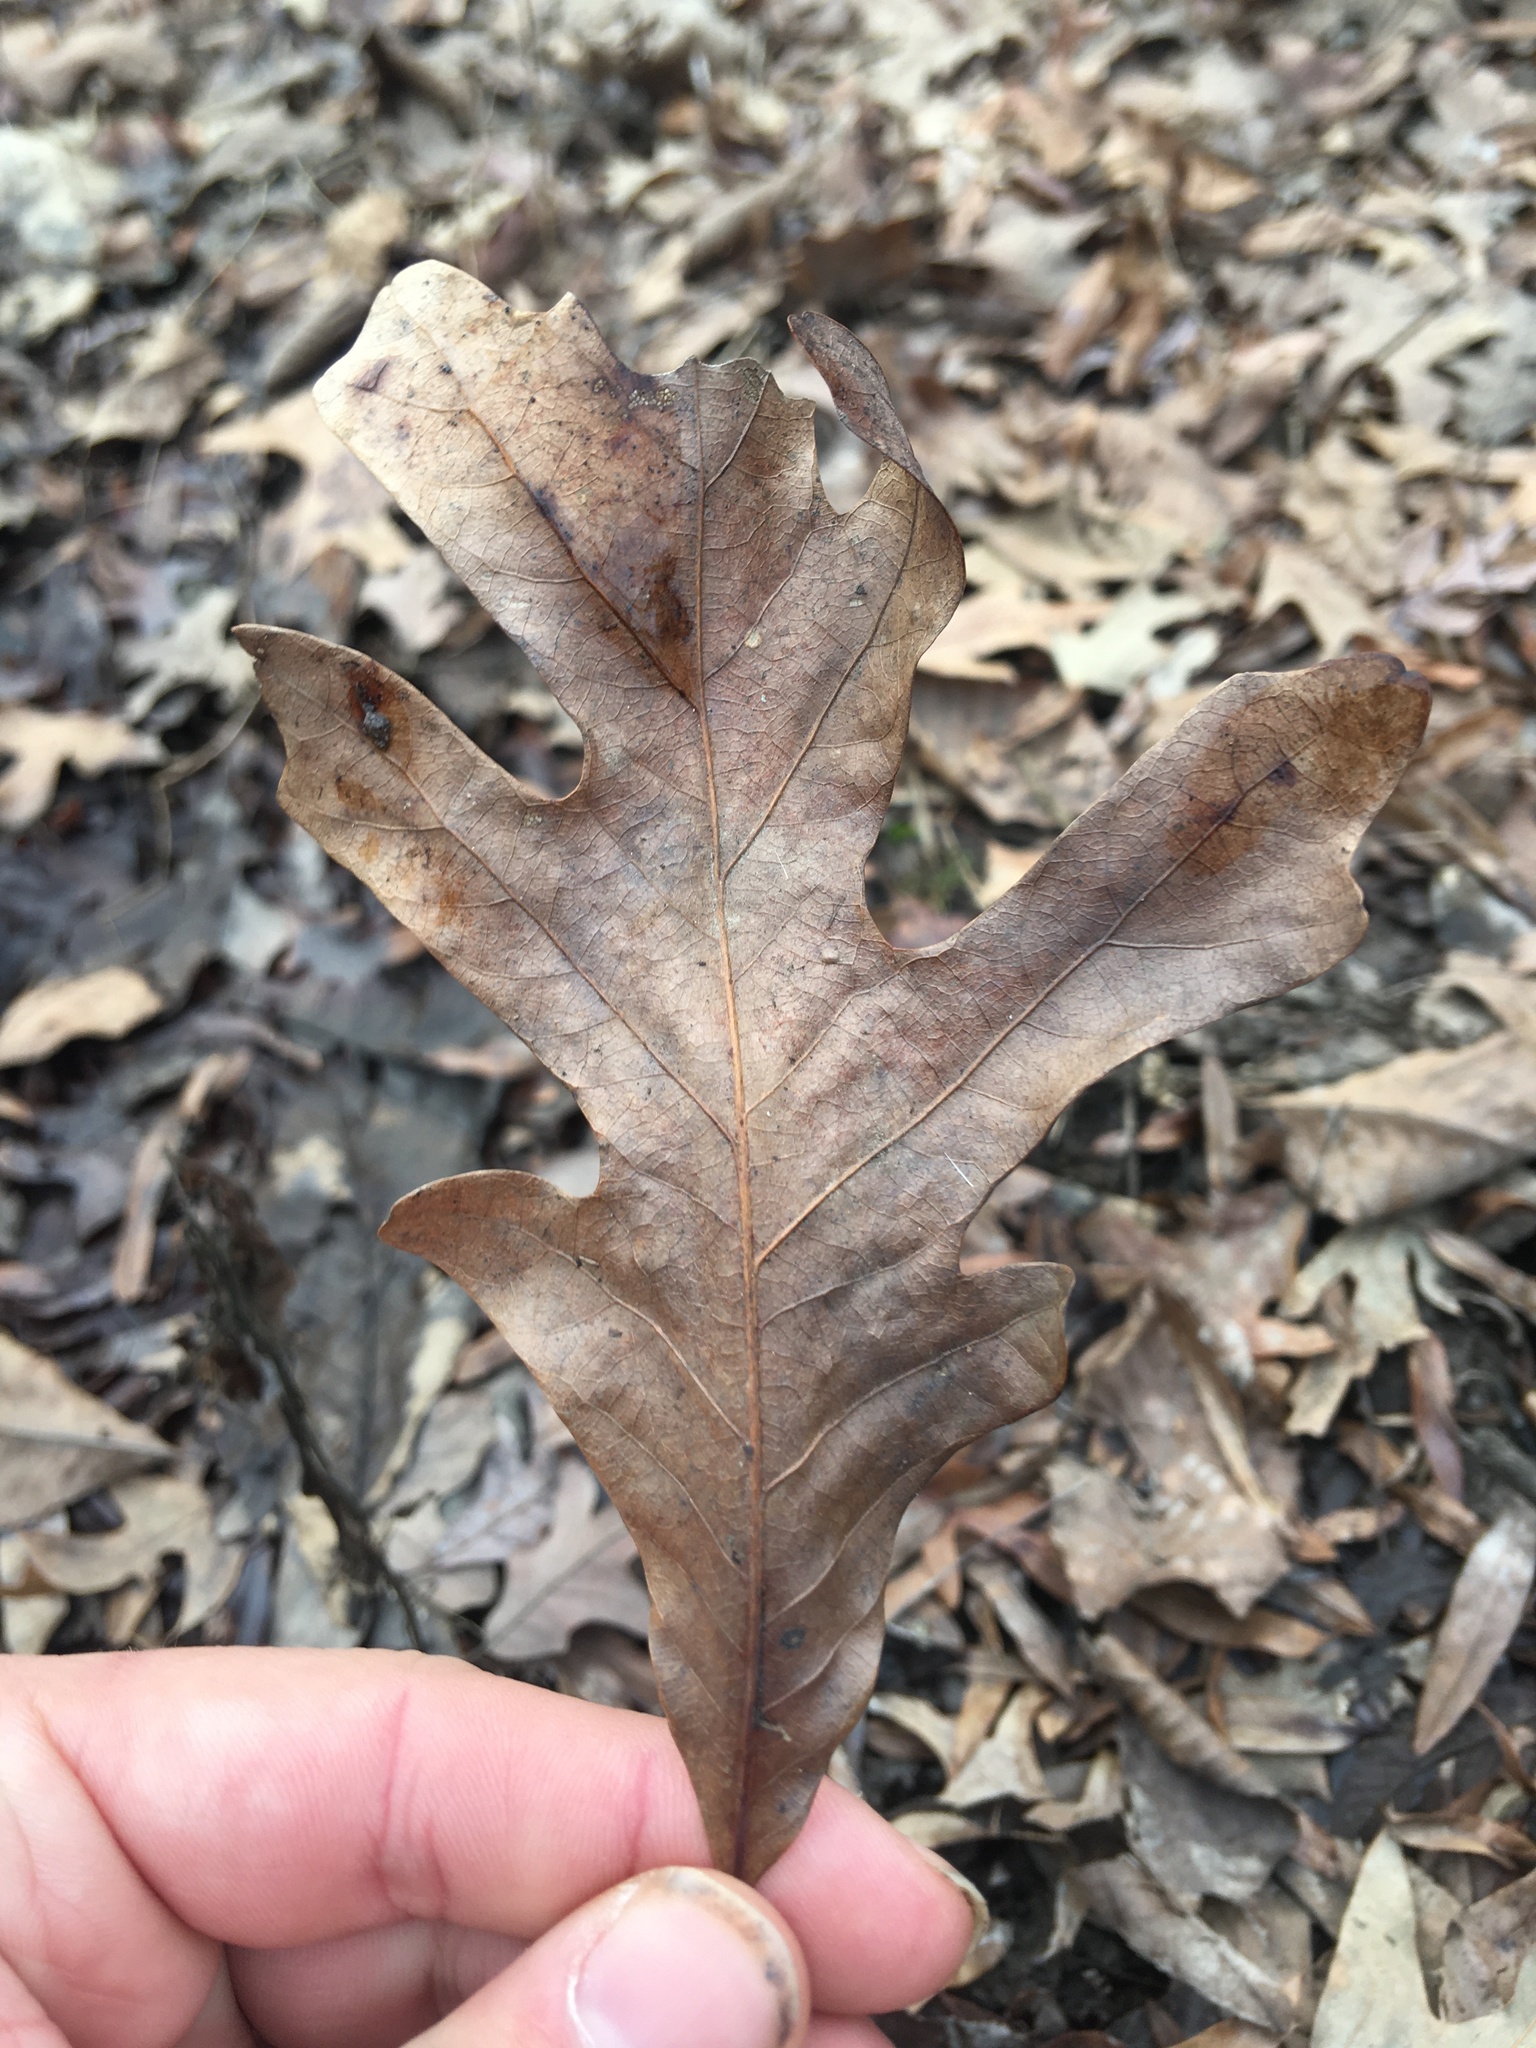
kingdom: Plantae
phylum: Tracheophyta
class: Magnoliopsida
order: Fagales
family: Fagaceae
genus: Quercus
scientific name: Quercus alba
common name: White oak
